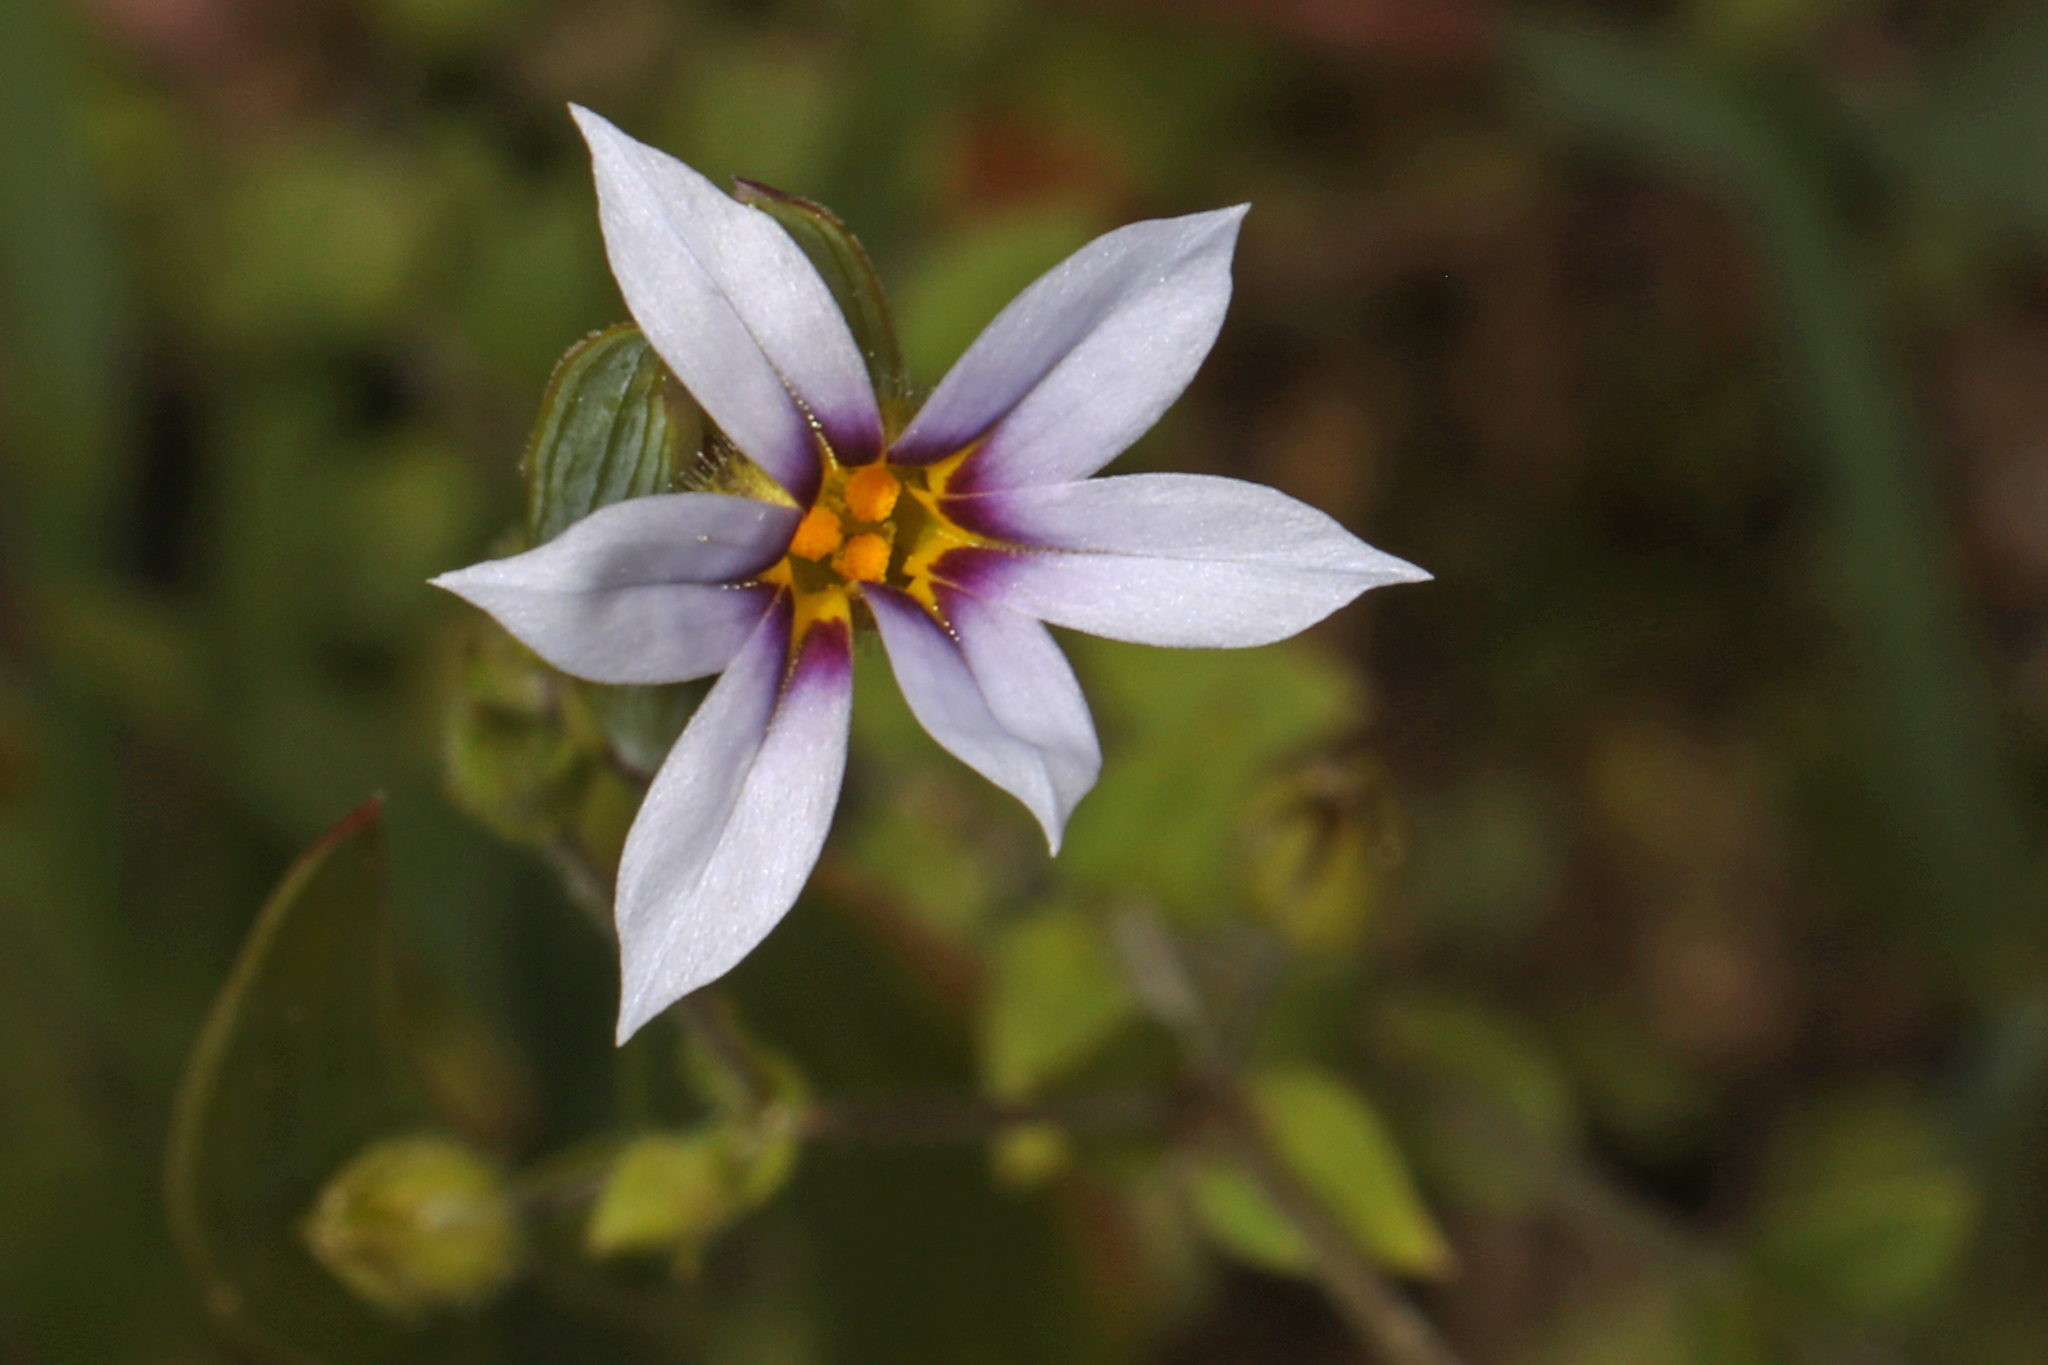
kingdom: Plantae
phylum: Tracheophyta
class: Liliopsida
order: Asparagales
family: Iridaceae
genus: Sisyrinchium
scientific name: Sisyrinchium micranthum
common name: Bermuda pigroot
